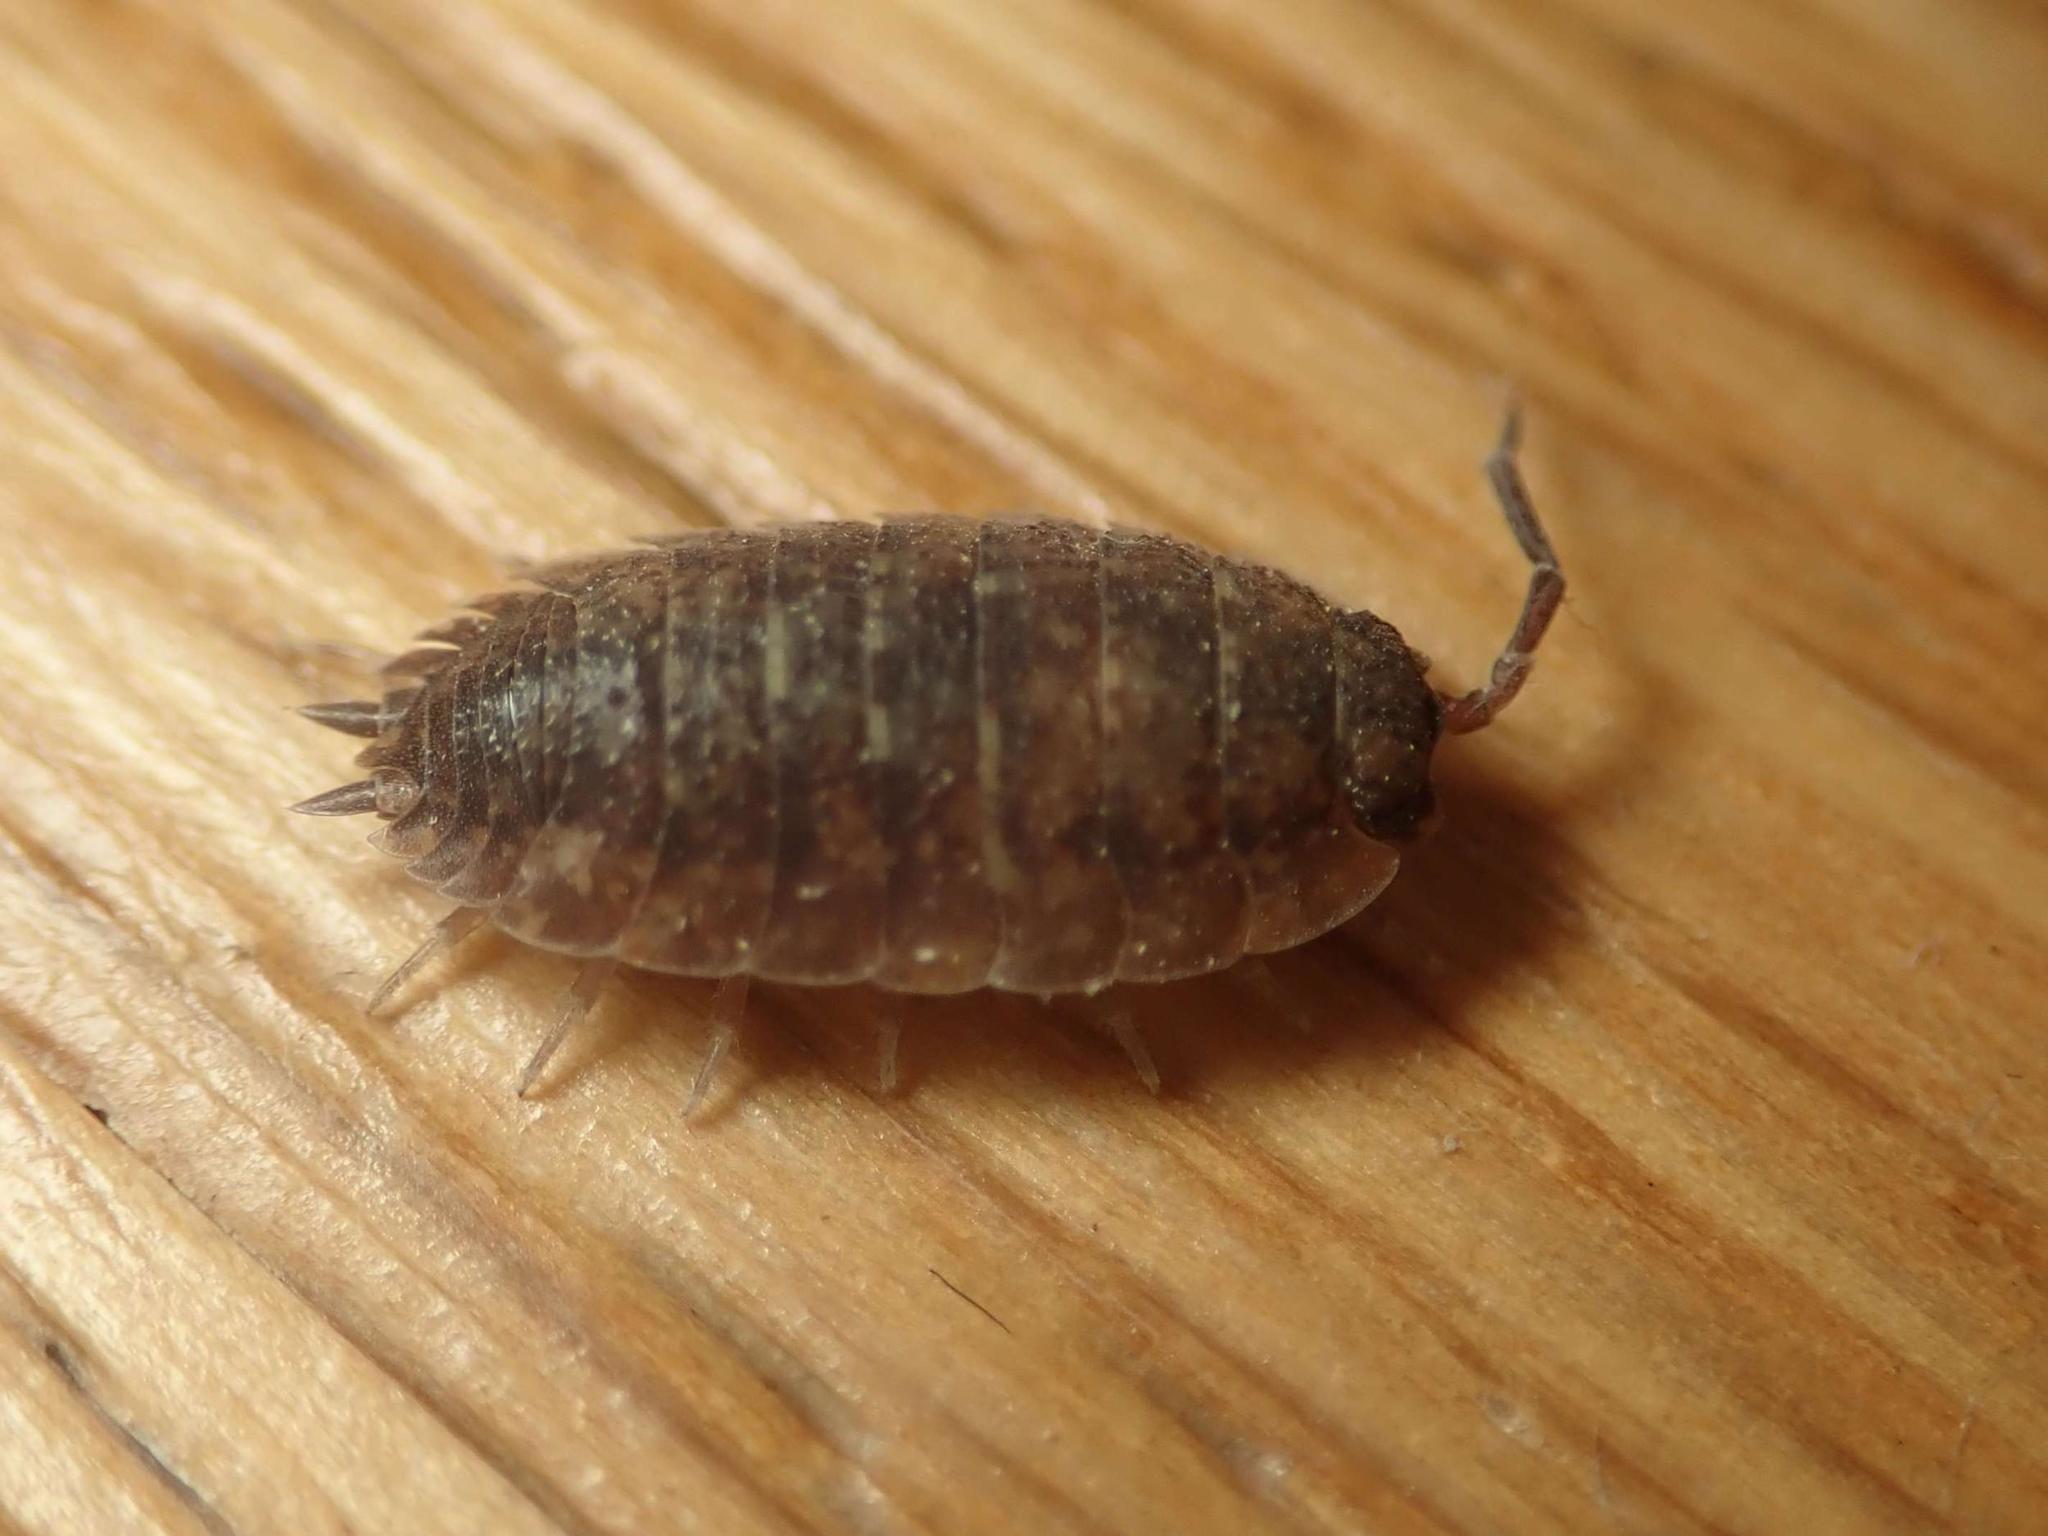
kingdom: Animalia
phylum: Arthropoda
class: Malacostraca
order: Isopoda
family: Porcellionidae
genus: Porcellio
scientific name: Porcellio scaber
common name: Common rough woodlouse
